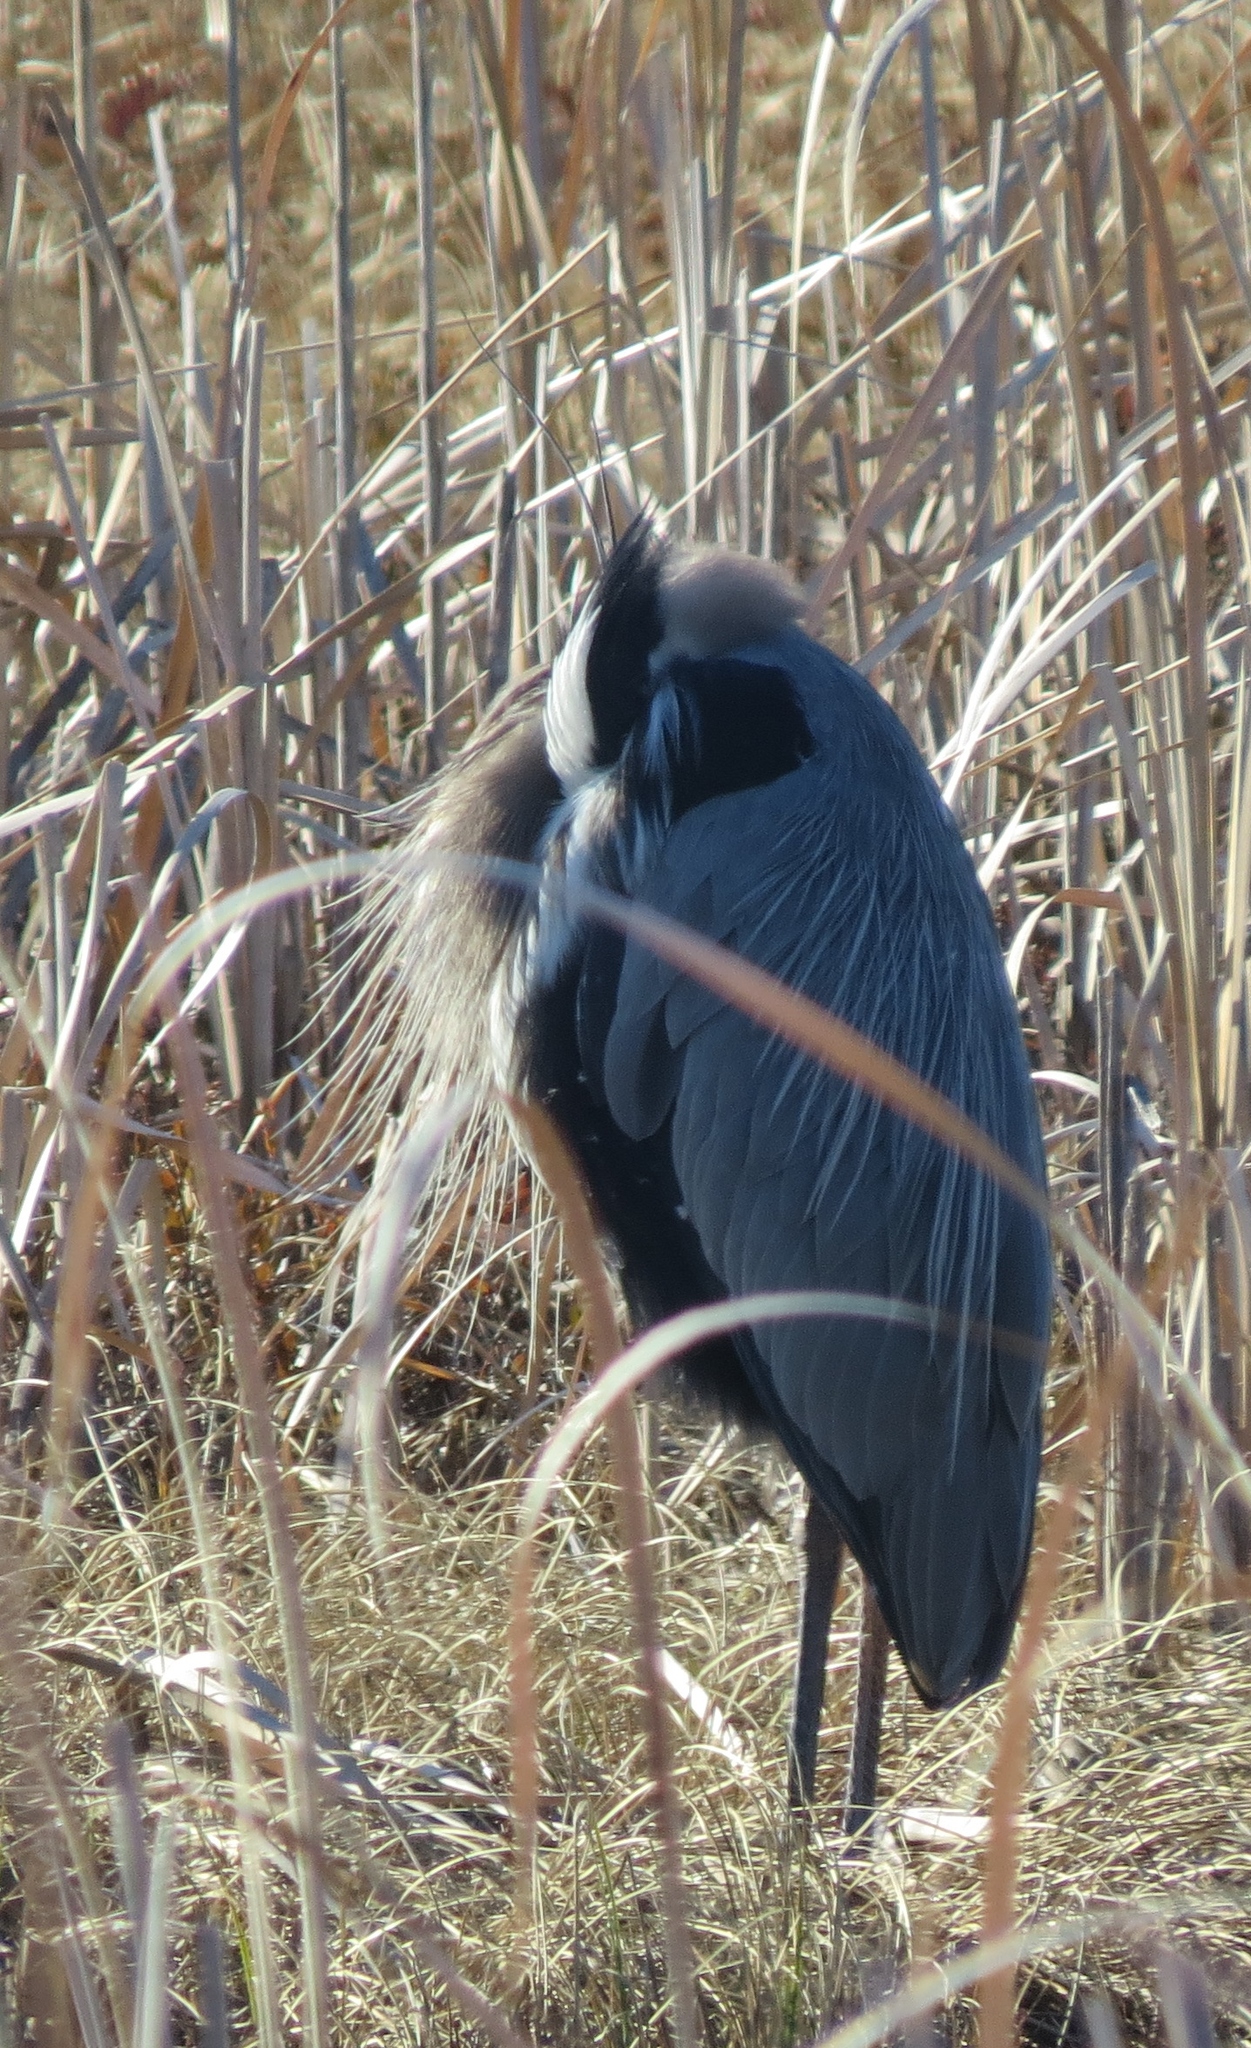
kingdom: Animalia
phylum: Chordata
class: Aves
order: Pelecaniformes
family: Ardeidae
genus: Ardea
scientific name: Ardea herodias
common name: Great blue heron
